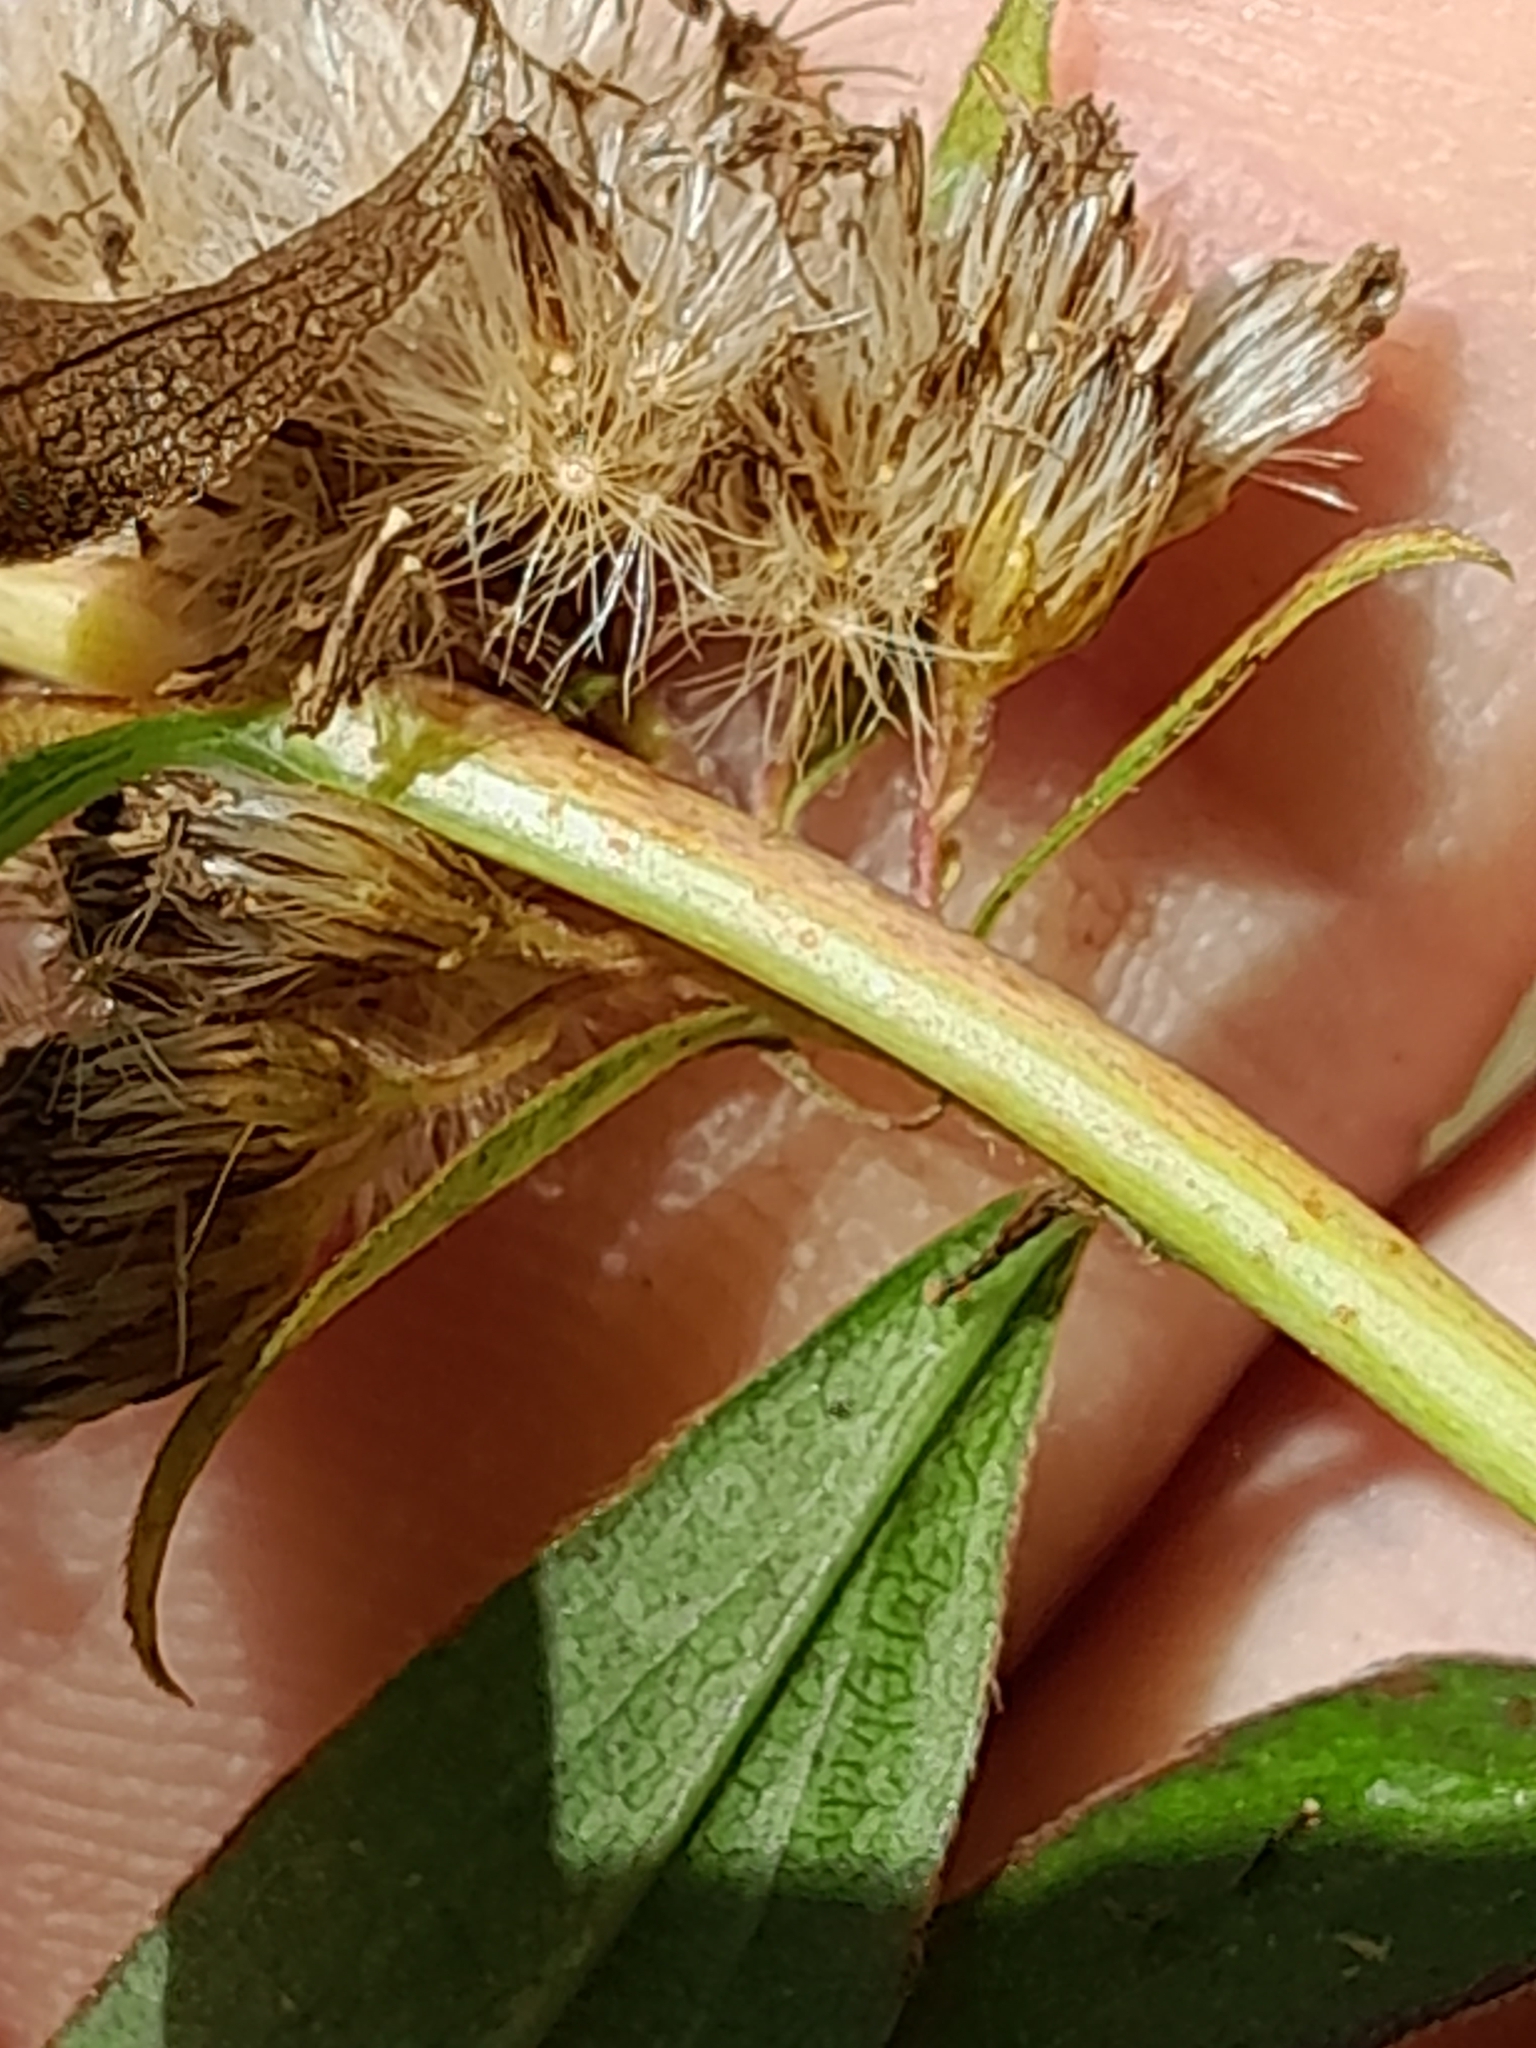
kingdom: Plantae
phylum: Tracheophyta
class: Magnoliopsida
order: Asterales
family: Asteraceae
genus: Solidago
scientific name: Solidago gigantea
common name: Giant goldenrod
